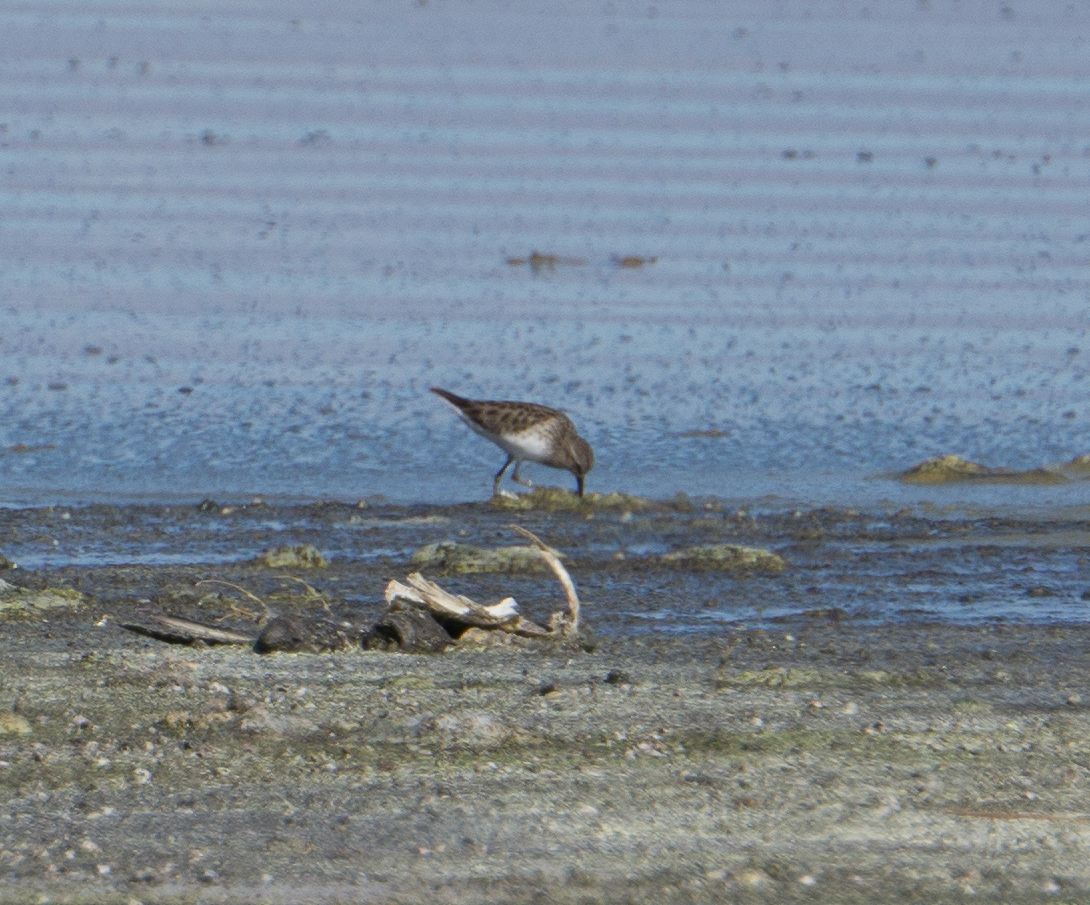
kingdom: Animalia
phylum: Chordata
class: Aves
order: Charadriiformes
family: Scolopacidae
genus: Calidris
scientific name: Calidris minutilla
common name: Least sandpiper
